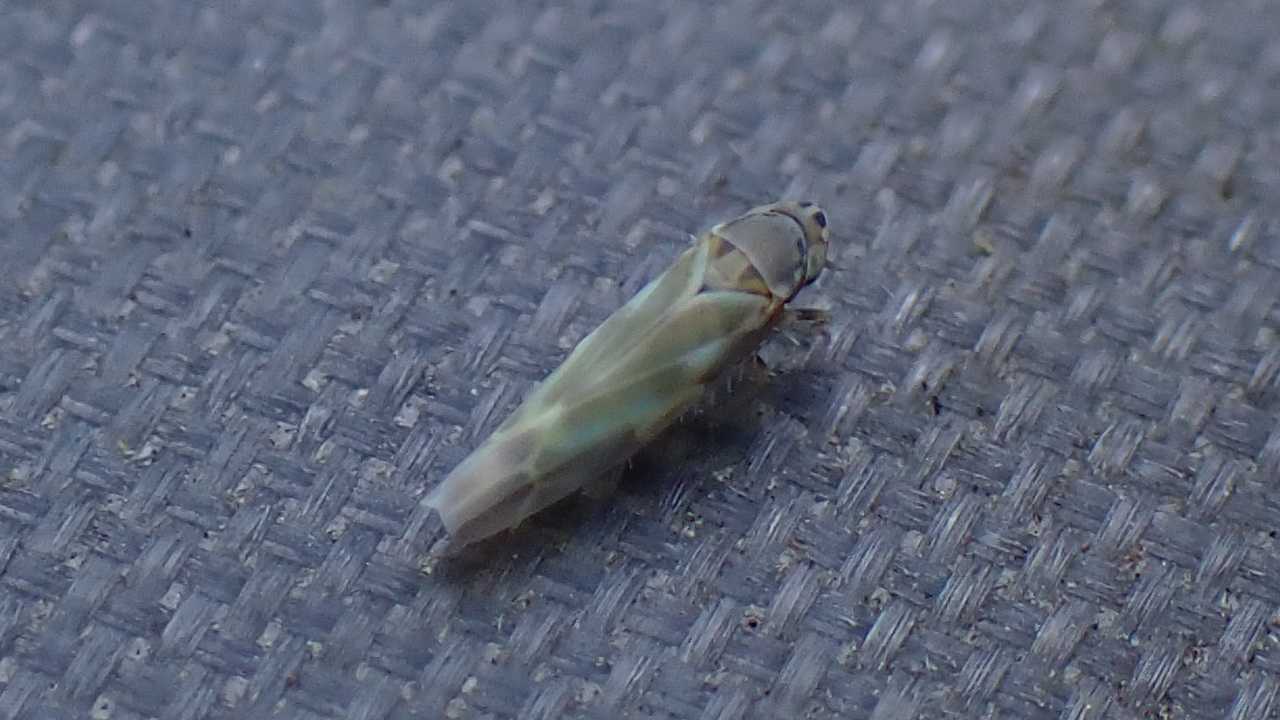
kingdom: Animalia
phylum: Arthropoda
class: Insecta
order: Hemiptera
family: Cicadellidae
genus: Frutioidia
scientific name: Frutioidia bisignata
